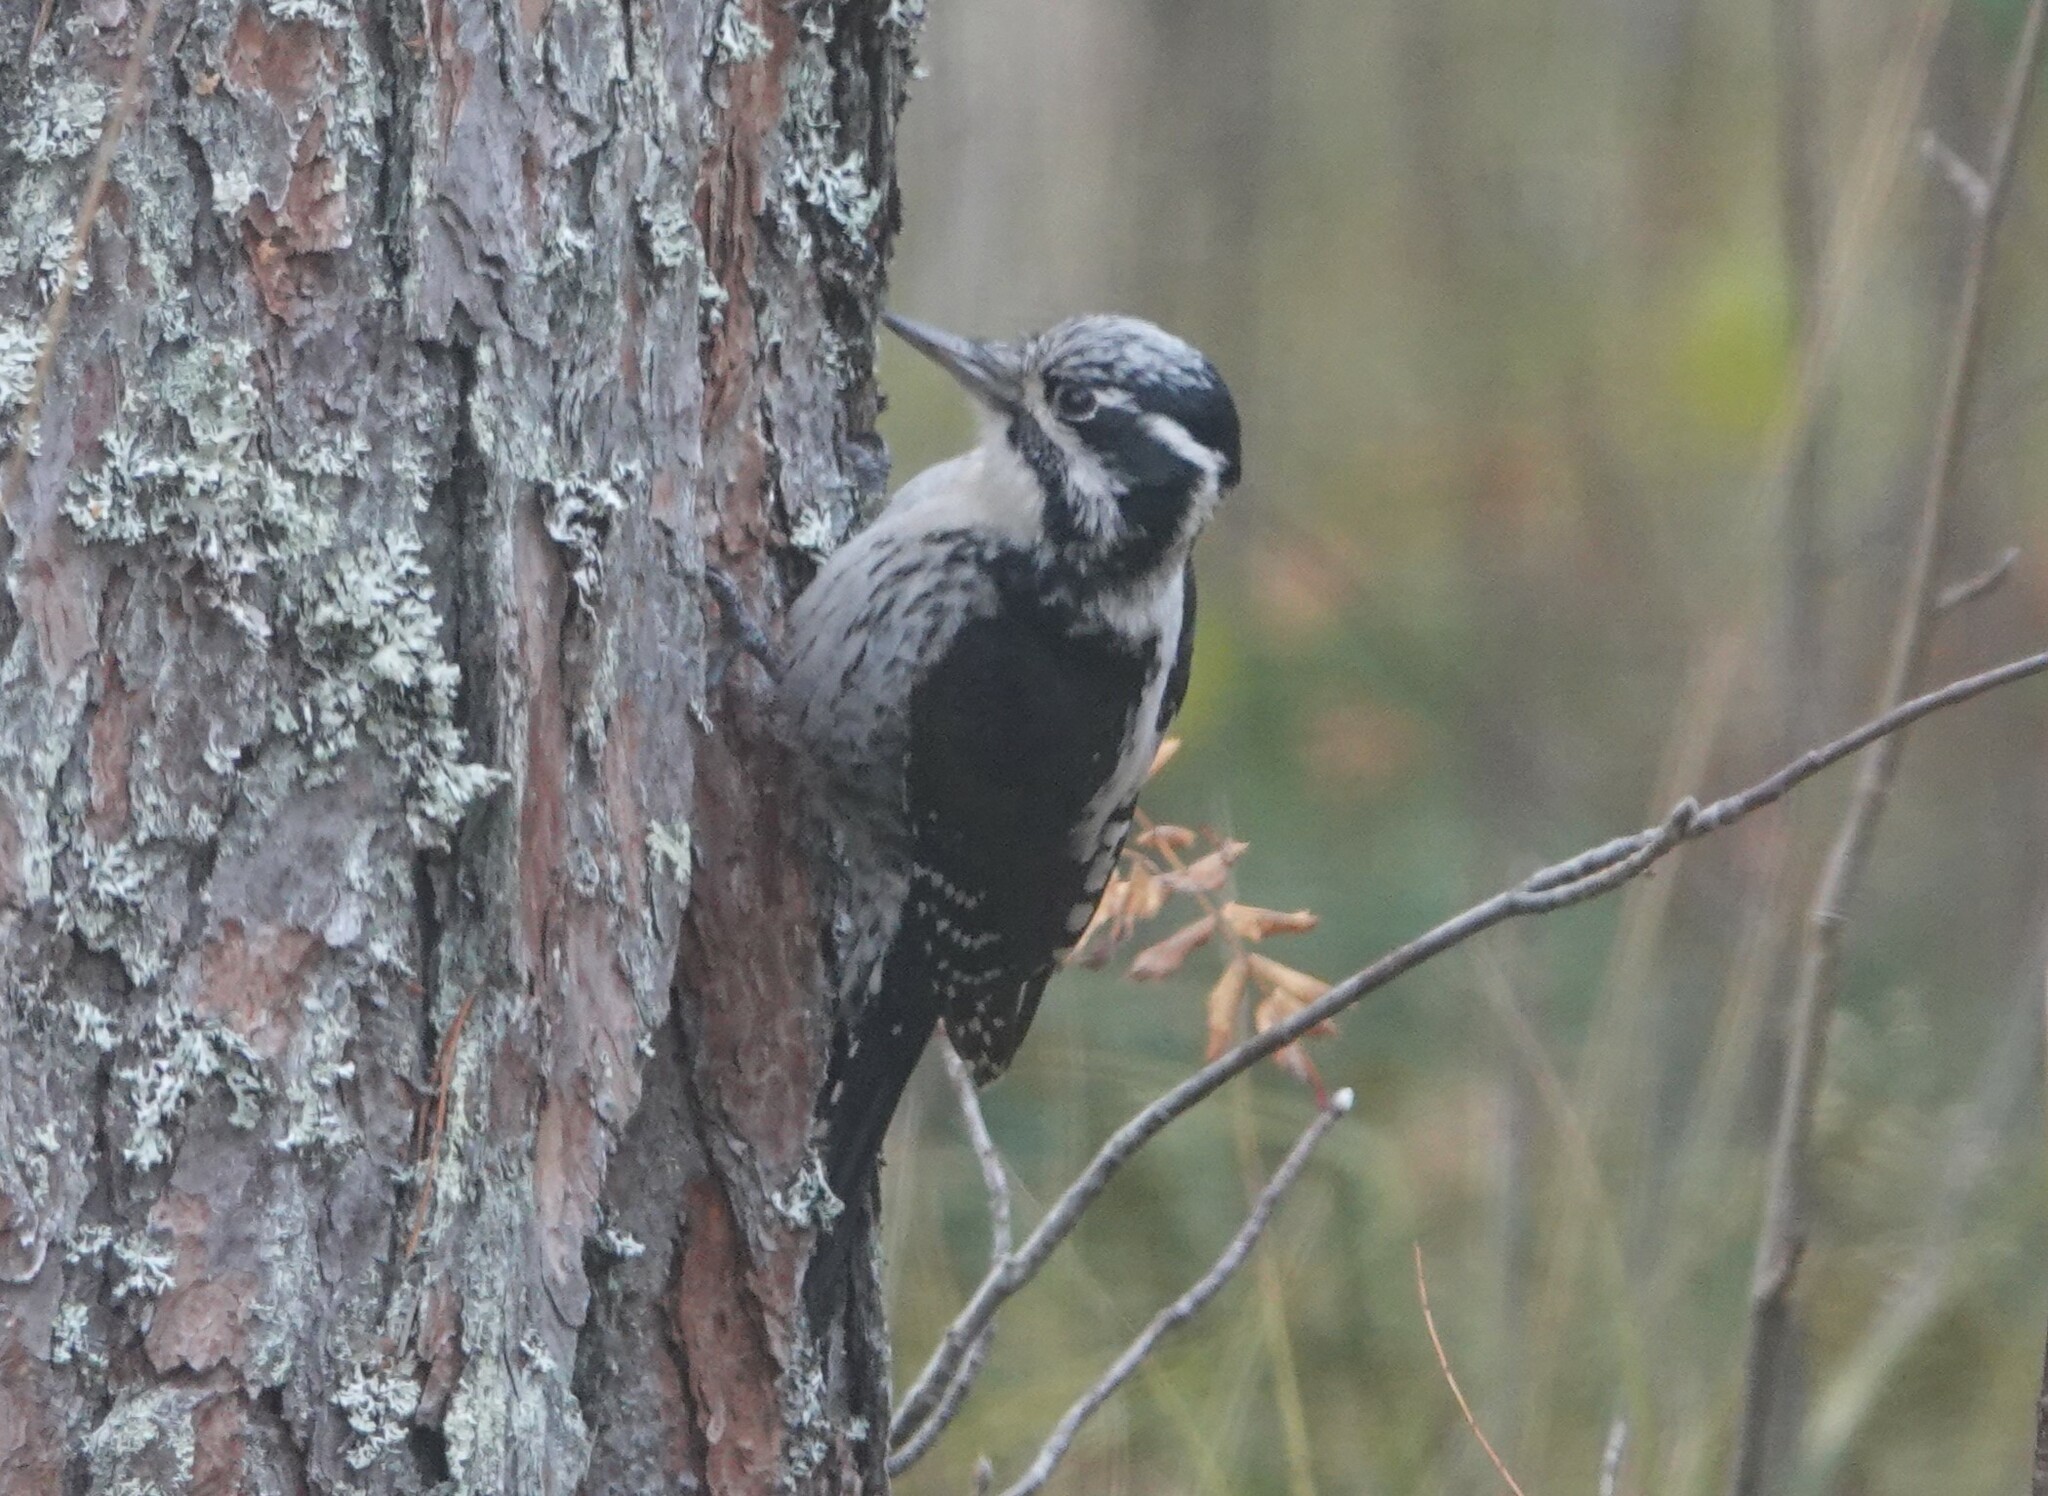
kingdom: Animalia
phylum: Chordata
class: Aves
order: Piciformes
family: Picidae
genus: Picoides
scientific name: Picoides tridactylus
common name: Eurasian three-toed woodpecker
